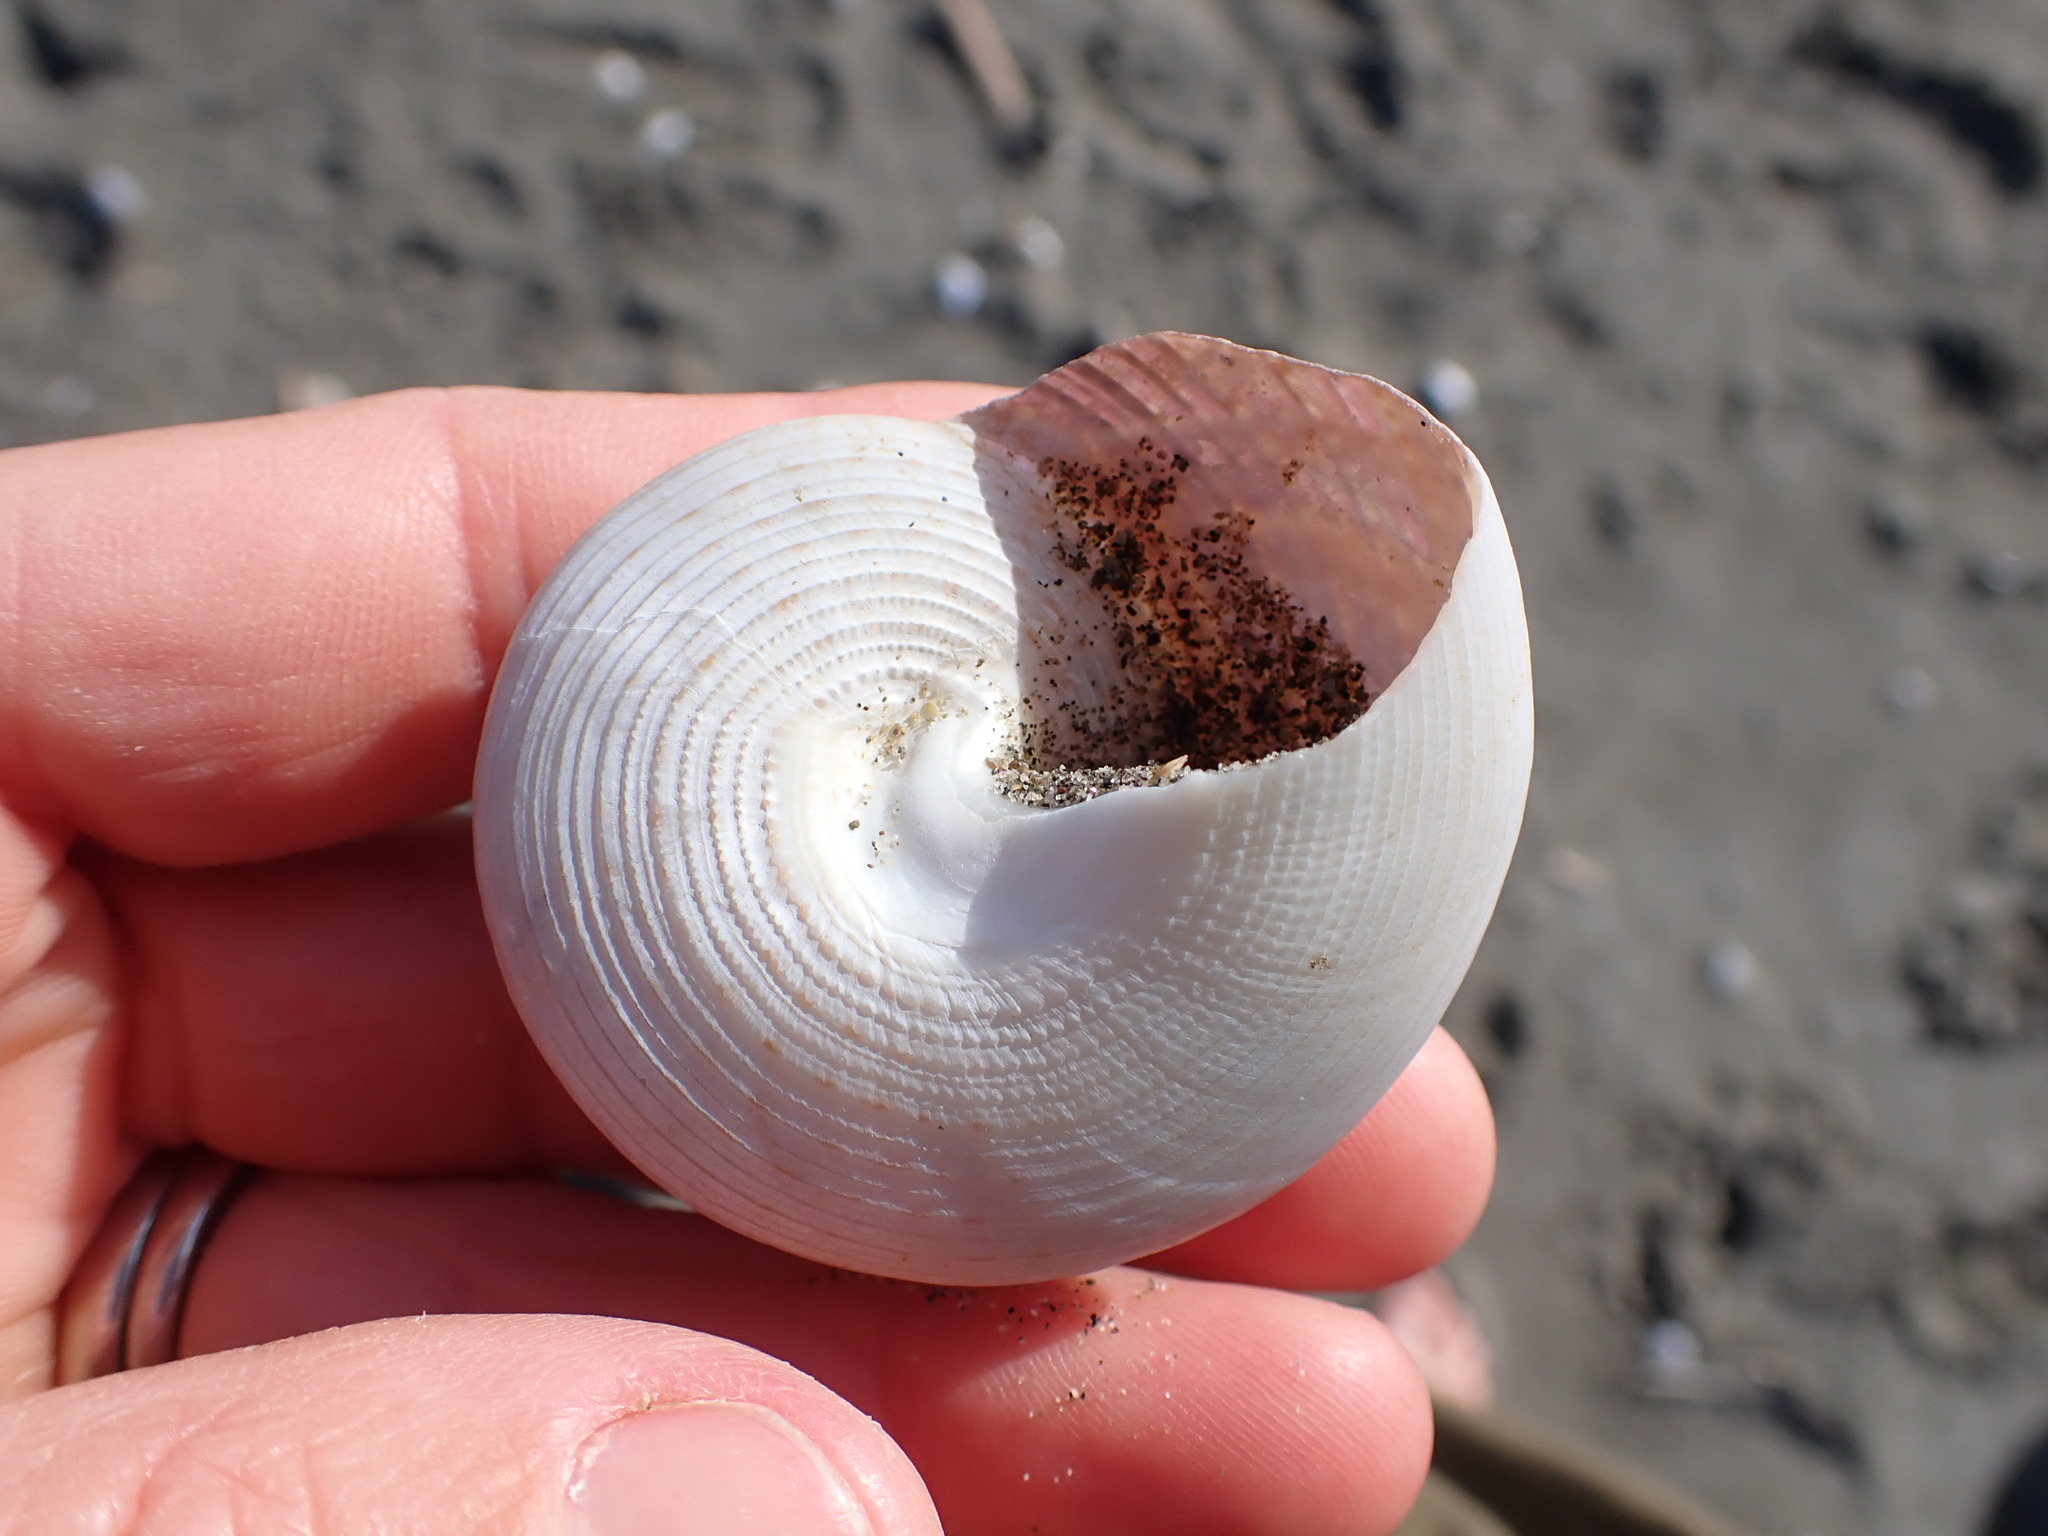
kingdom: Animalia
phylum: Mollusca
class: Gastropoda
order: Trochida
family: Calliostomatidae
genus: Maurea
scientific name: Maurea selecta
